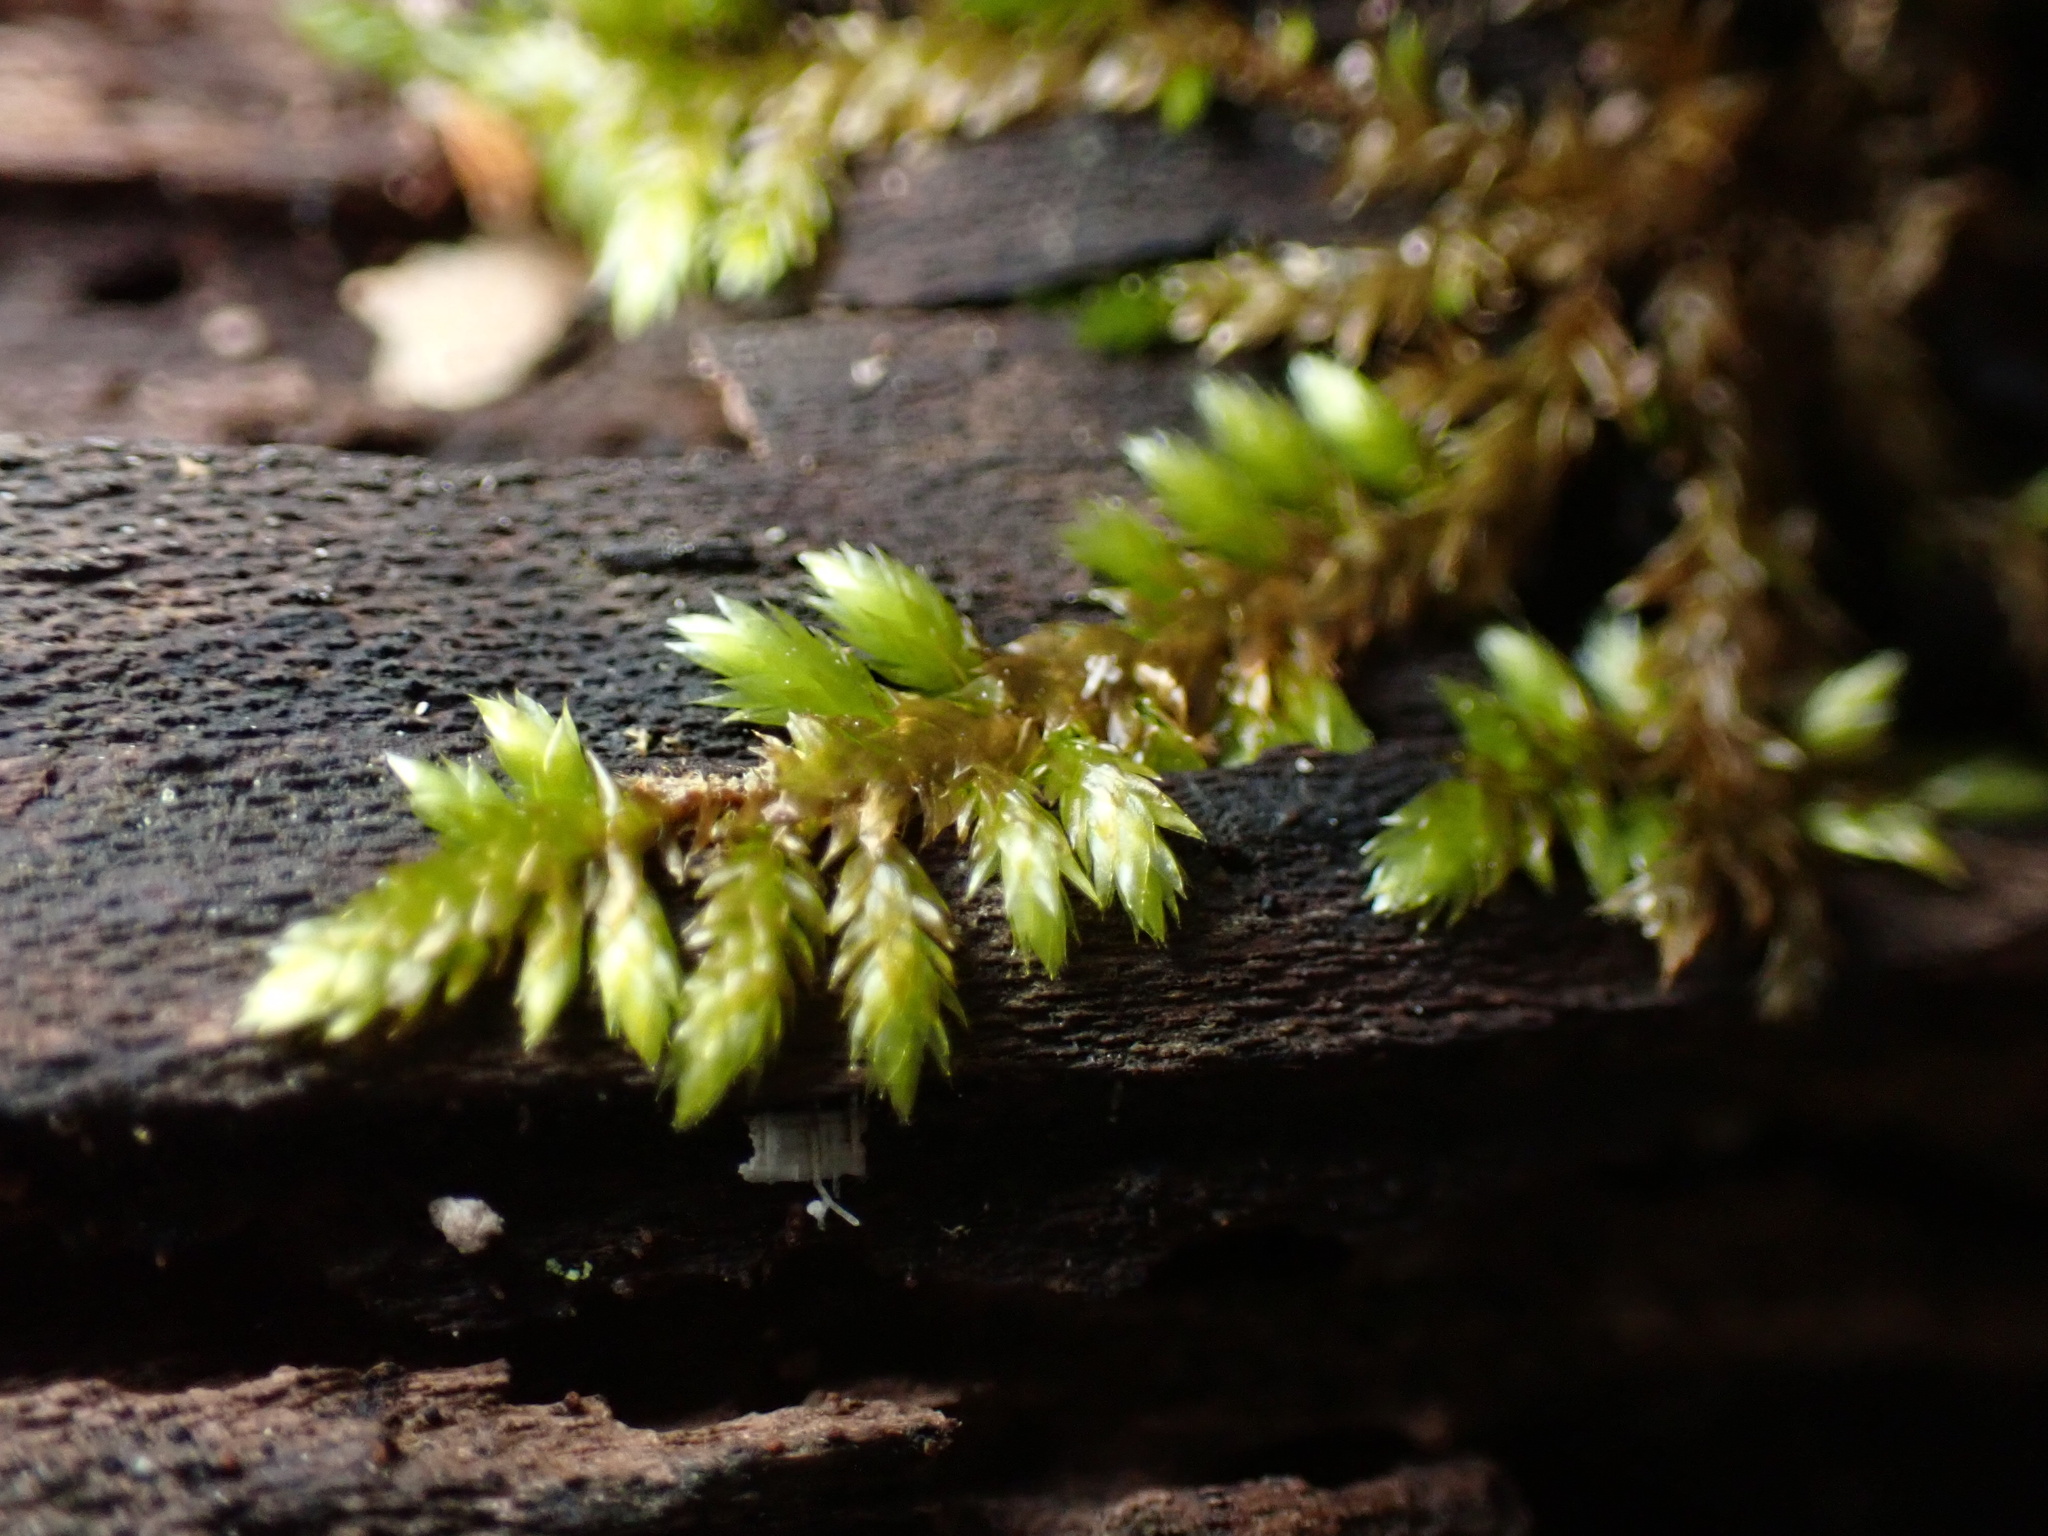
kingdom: Plantae
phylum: Bryophyta
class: Bryopsida
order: Hypnales
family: Entodontaceae
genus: Entodon
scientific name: Entodon cladorrhizans
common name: Flat-stemmed entodon moss
